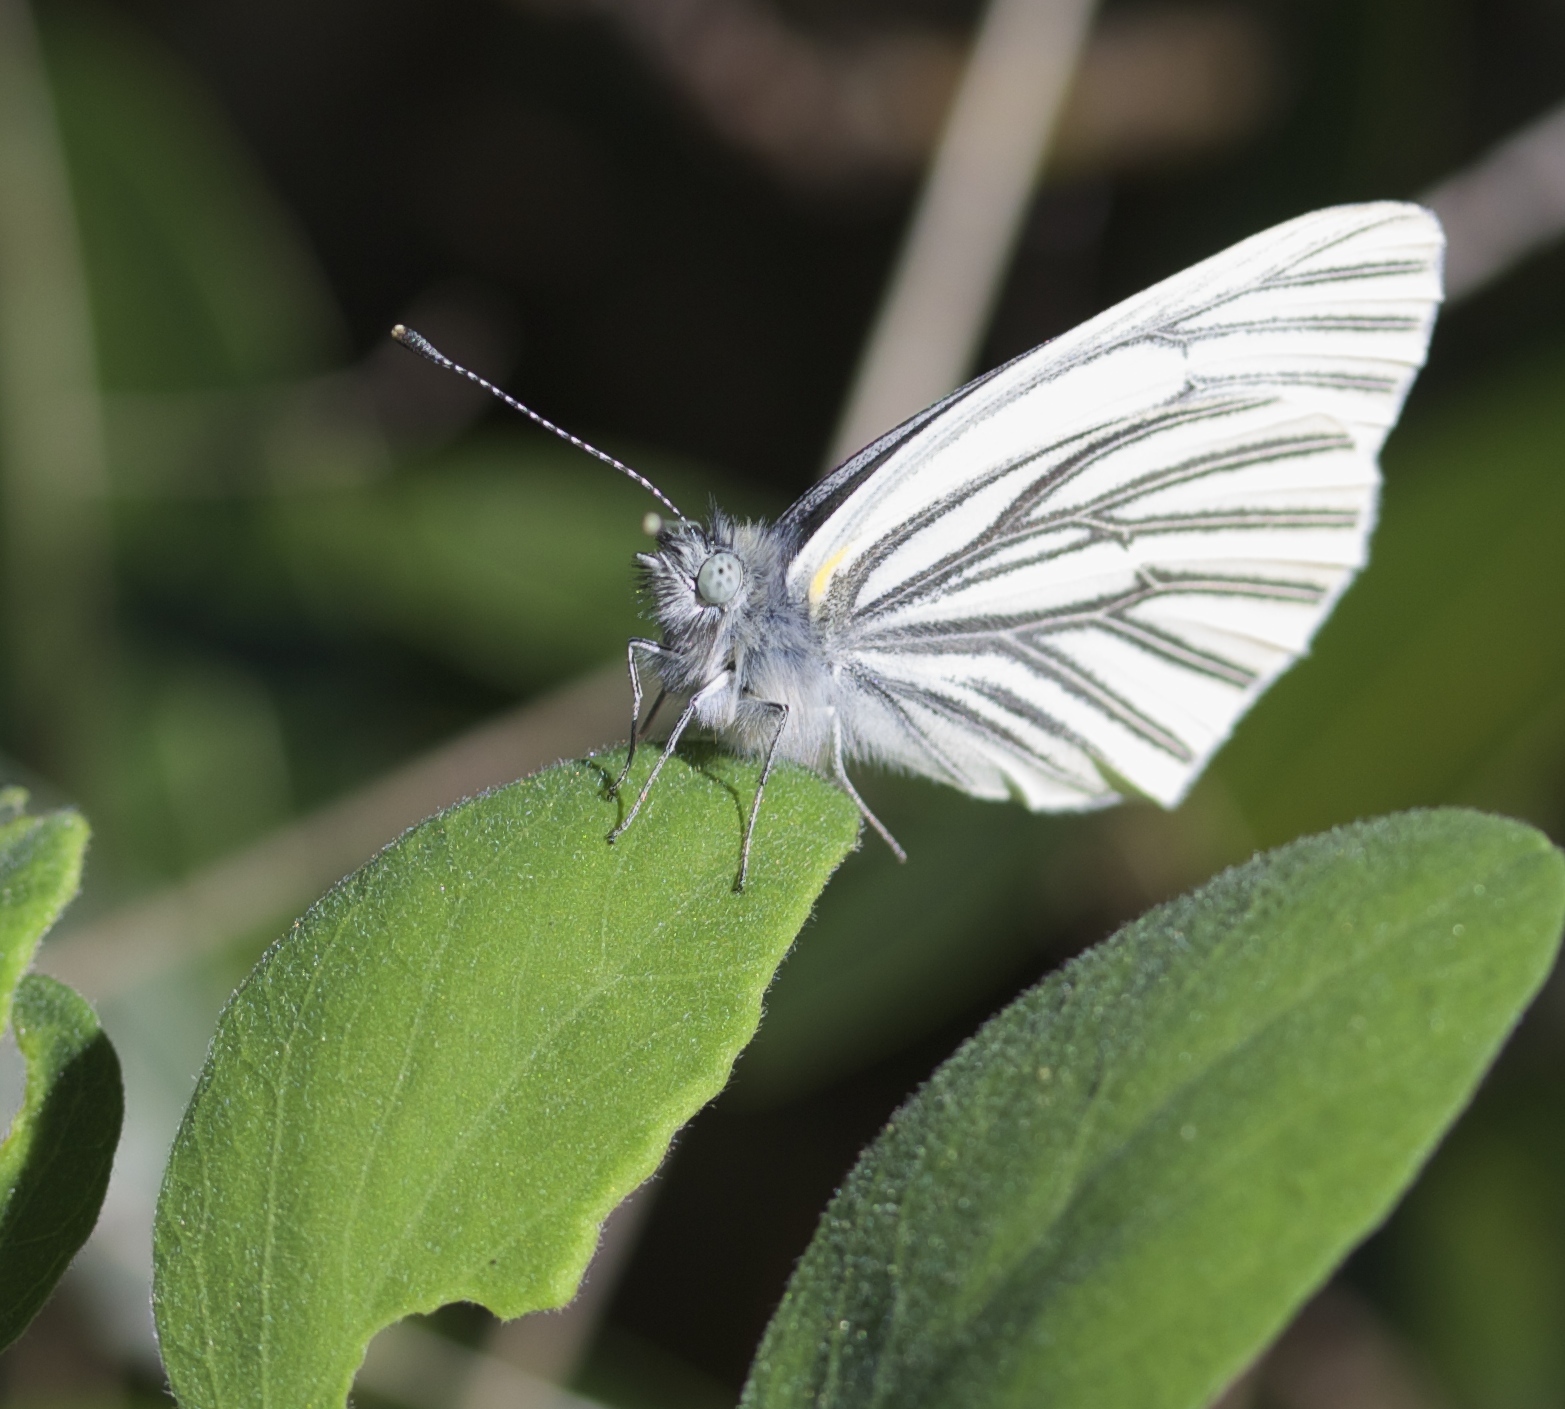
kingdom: Animalia
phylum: Arthropoda
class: Insecta
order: Lepidoptera
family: Pieridae
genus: Pieris
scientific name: Pieris marginalis
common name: Margined white
